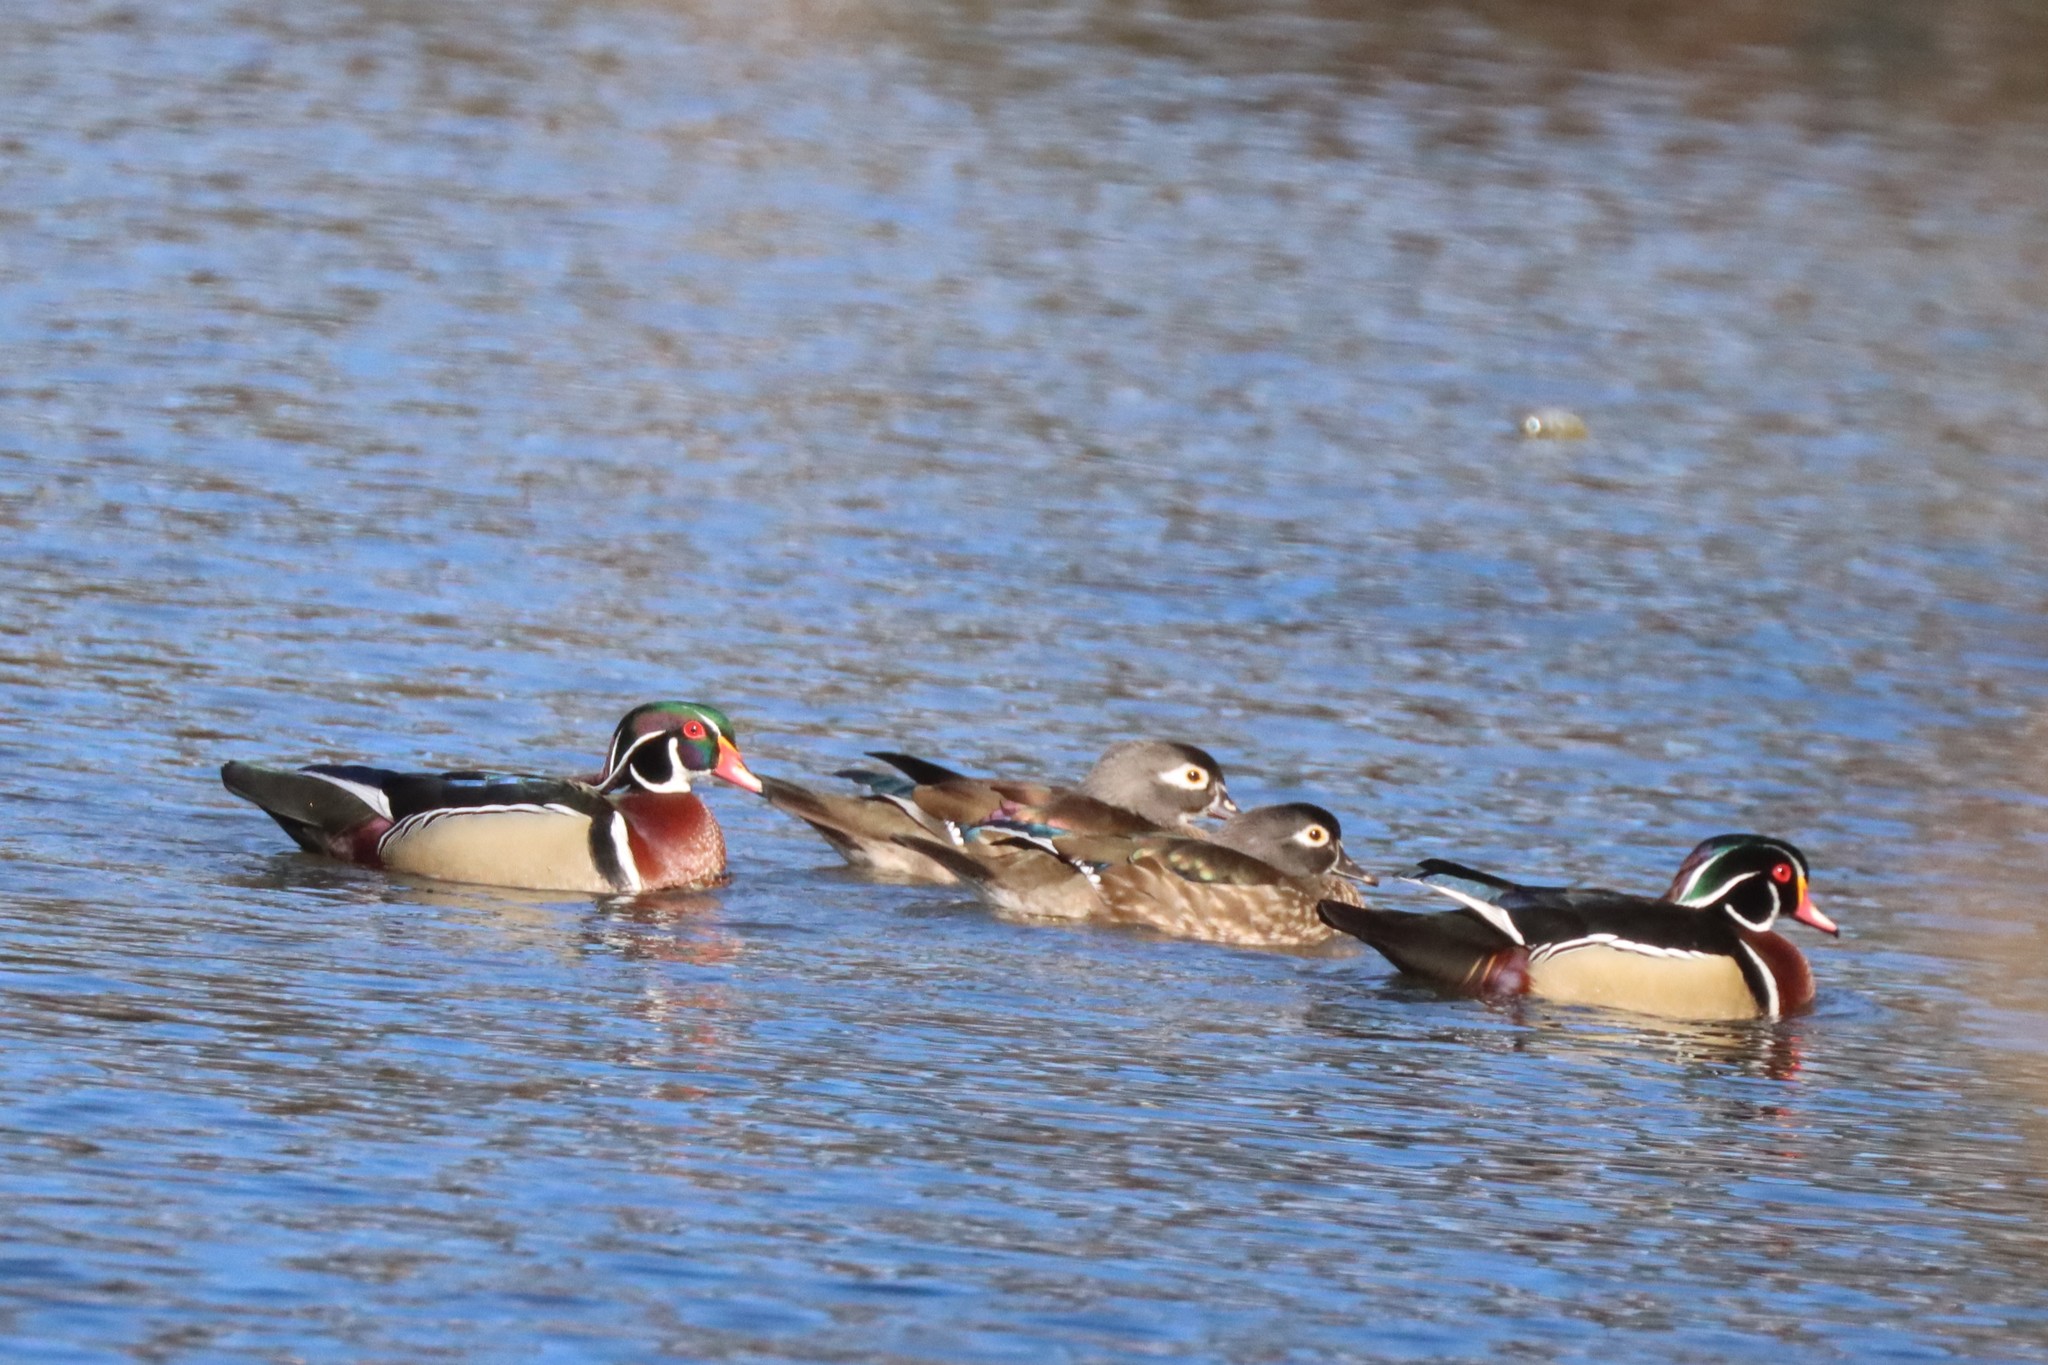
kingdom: Animalia
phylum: Chordata
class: Aves
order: Anseriformes
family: Anatidae
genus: Aix
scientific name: Aix sponsa
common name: Wood duck
